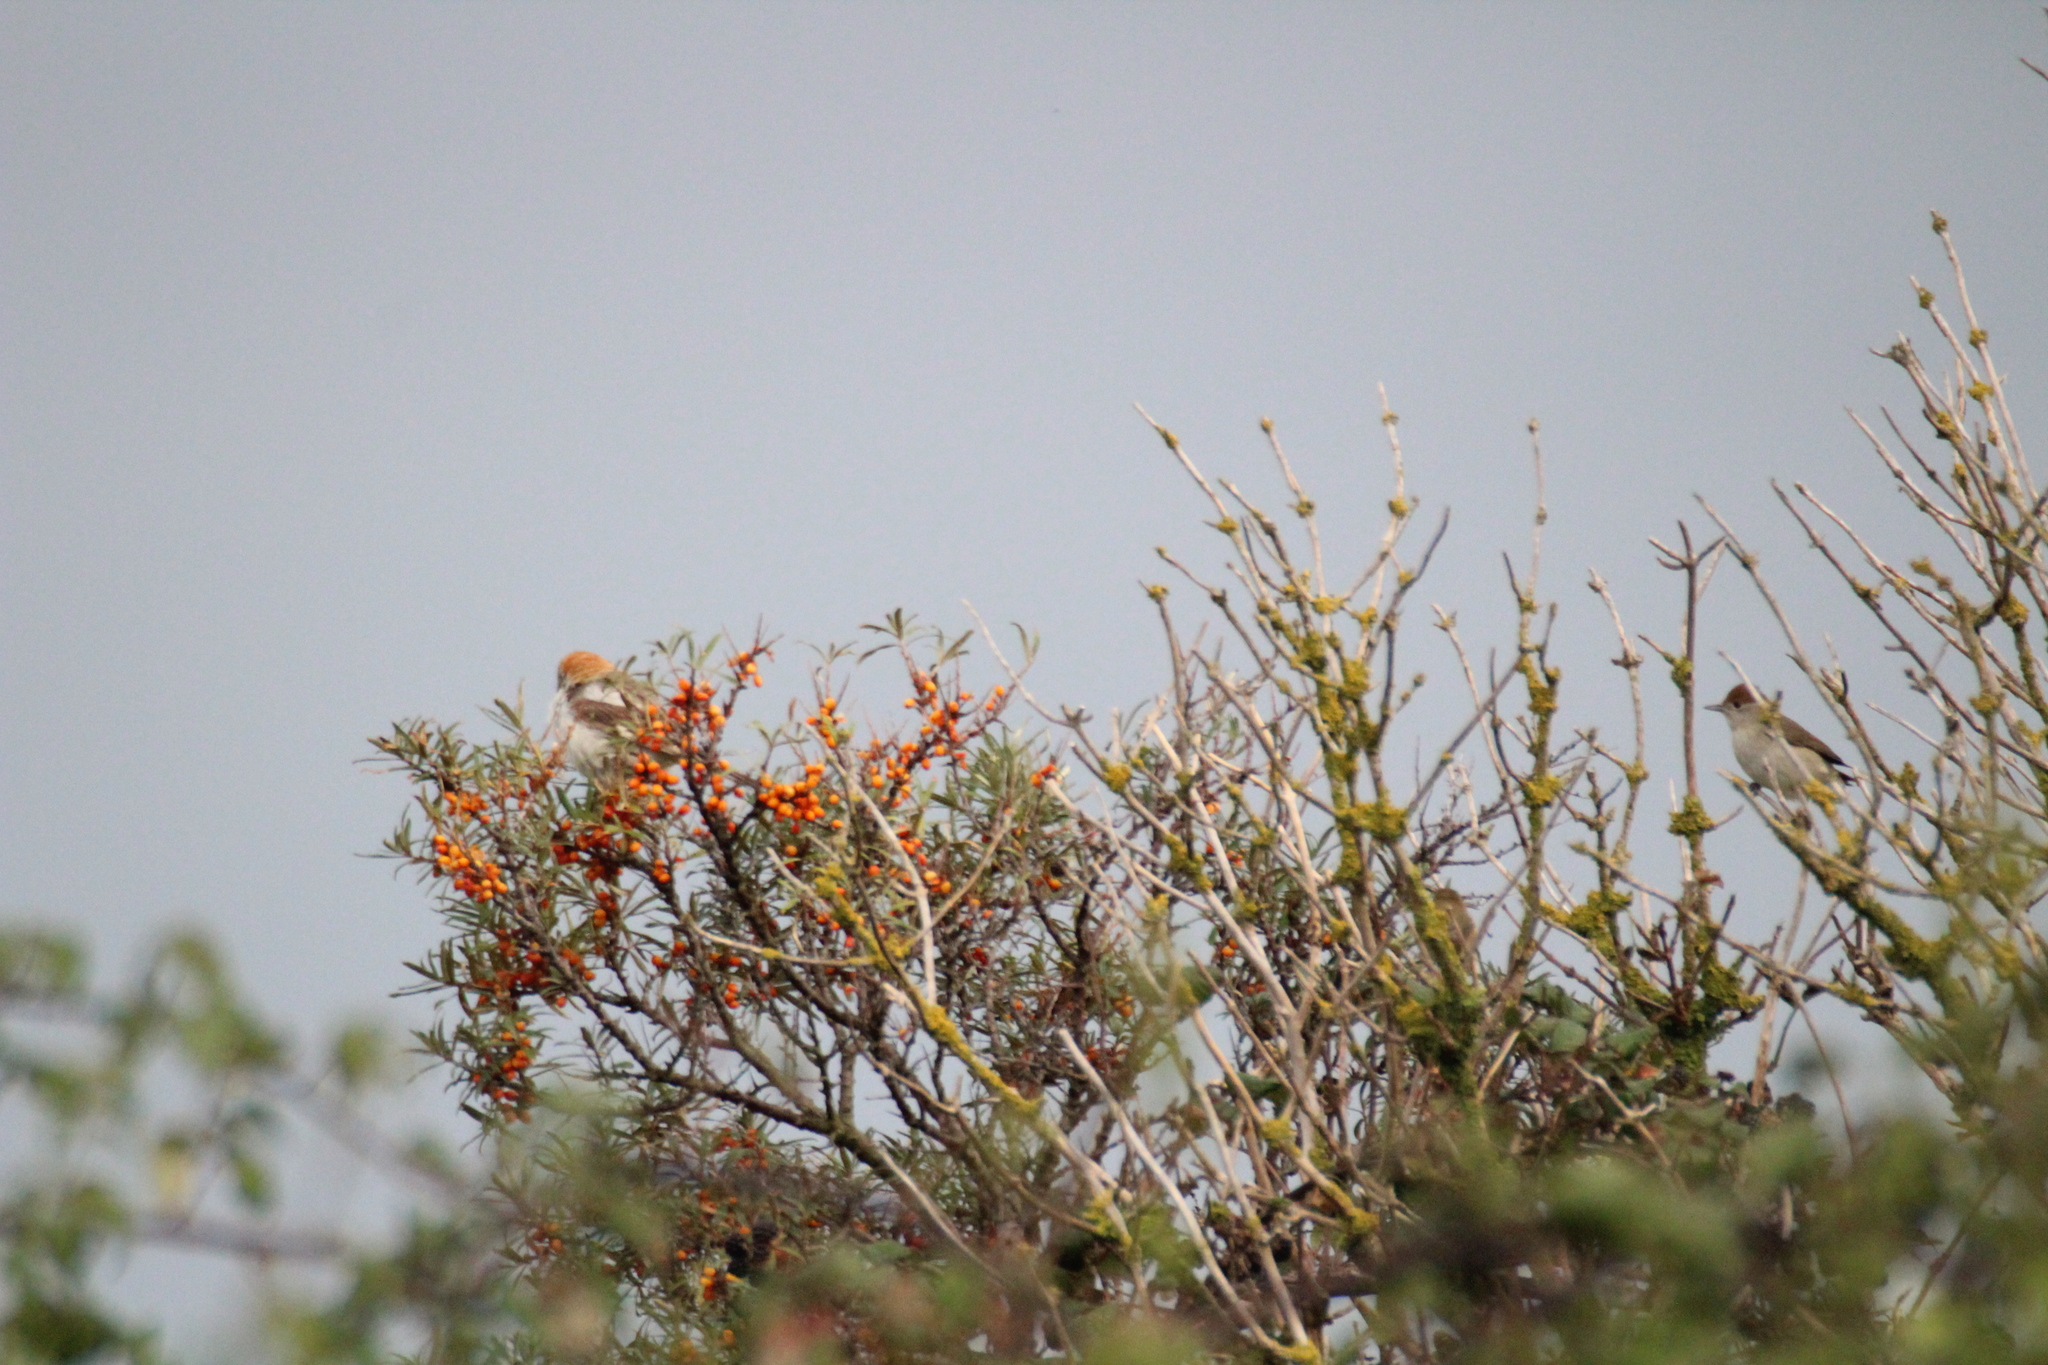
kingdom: Animalia
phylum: Chordata
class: Aves
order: Passeriformes
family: Sylviidae
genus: Sylvia
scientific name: Sylvia atricapilla
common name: Eurasian blackcap
